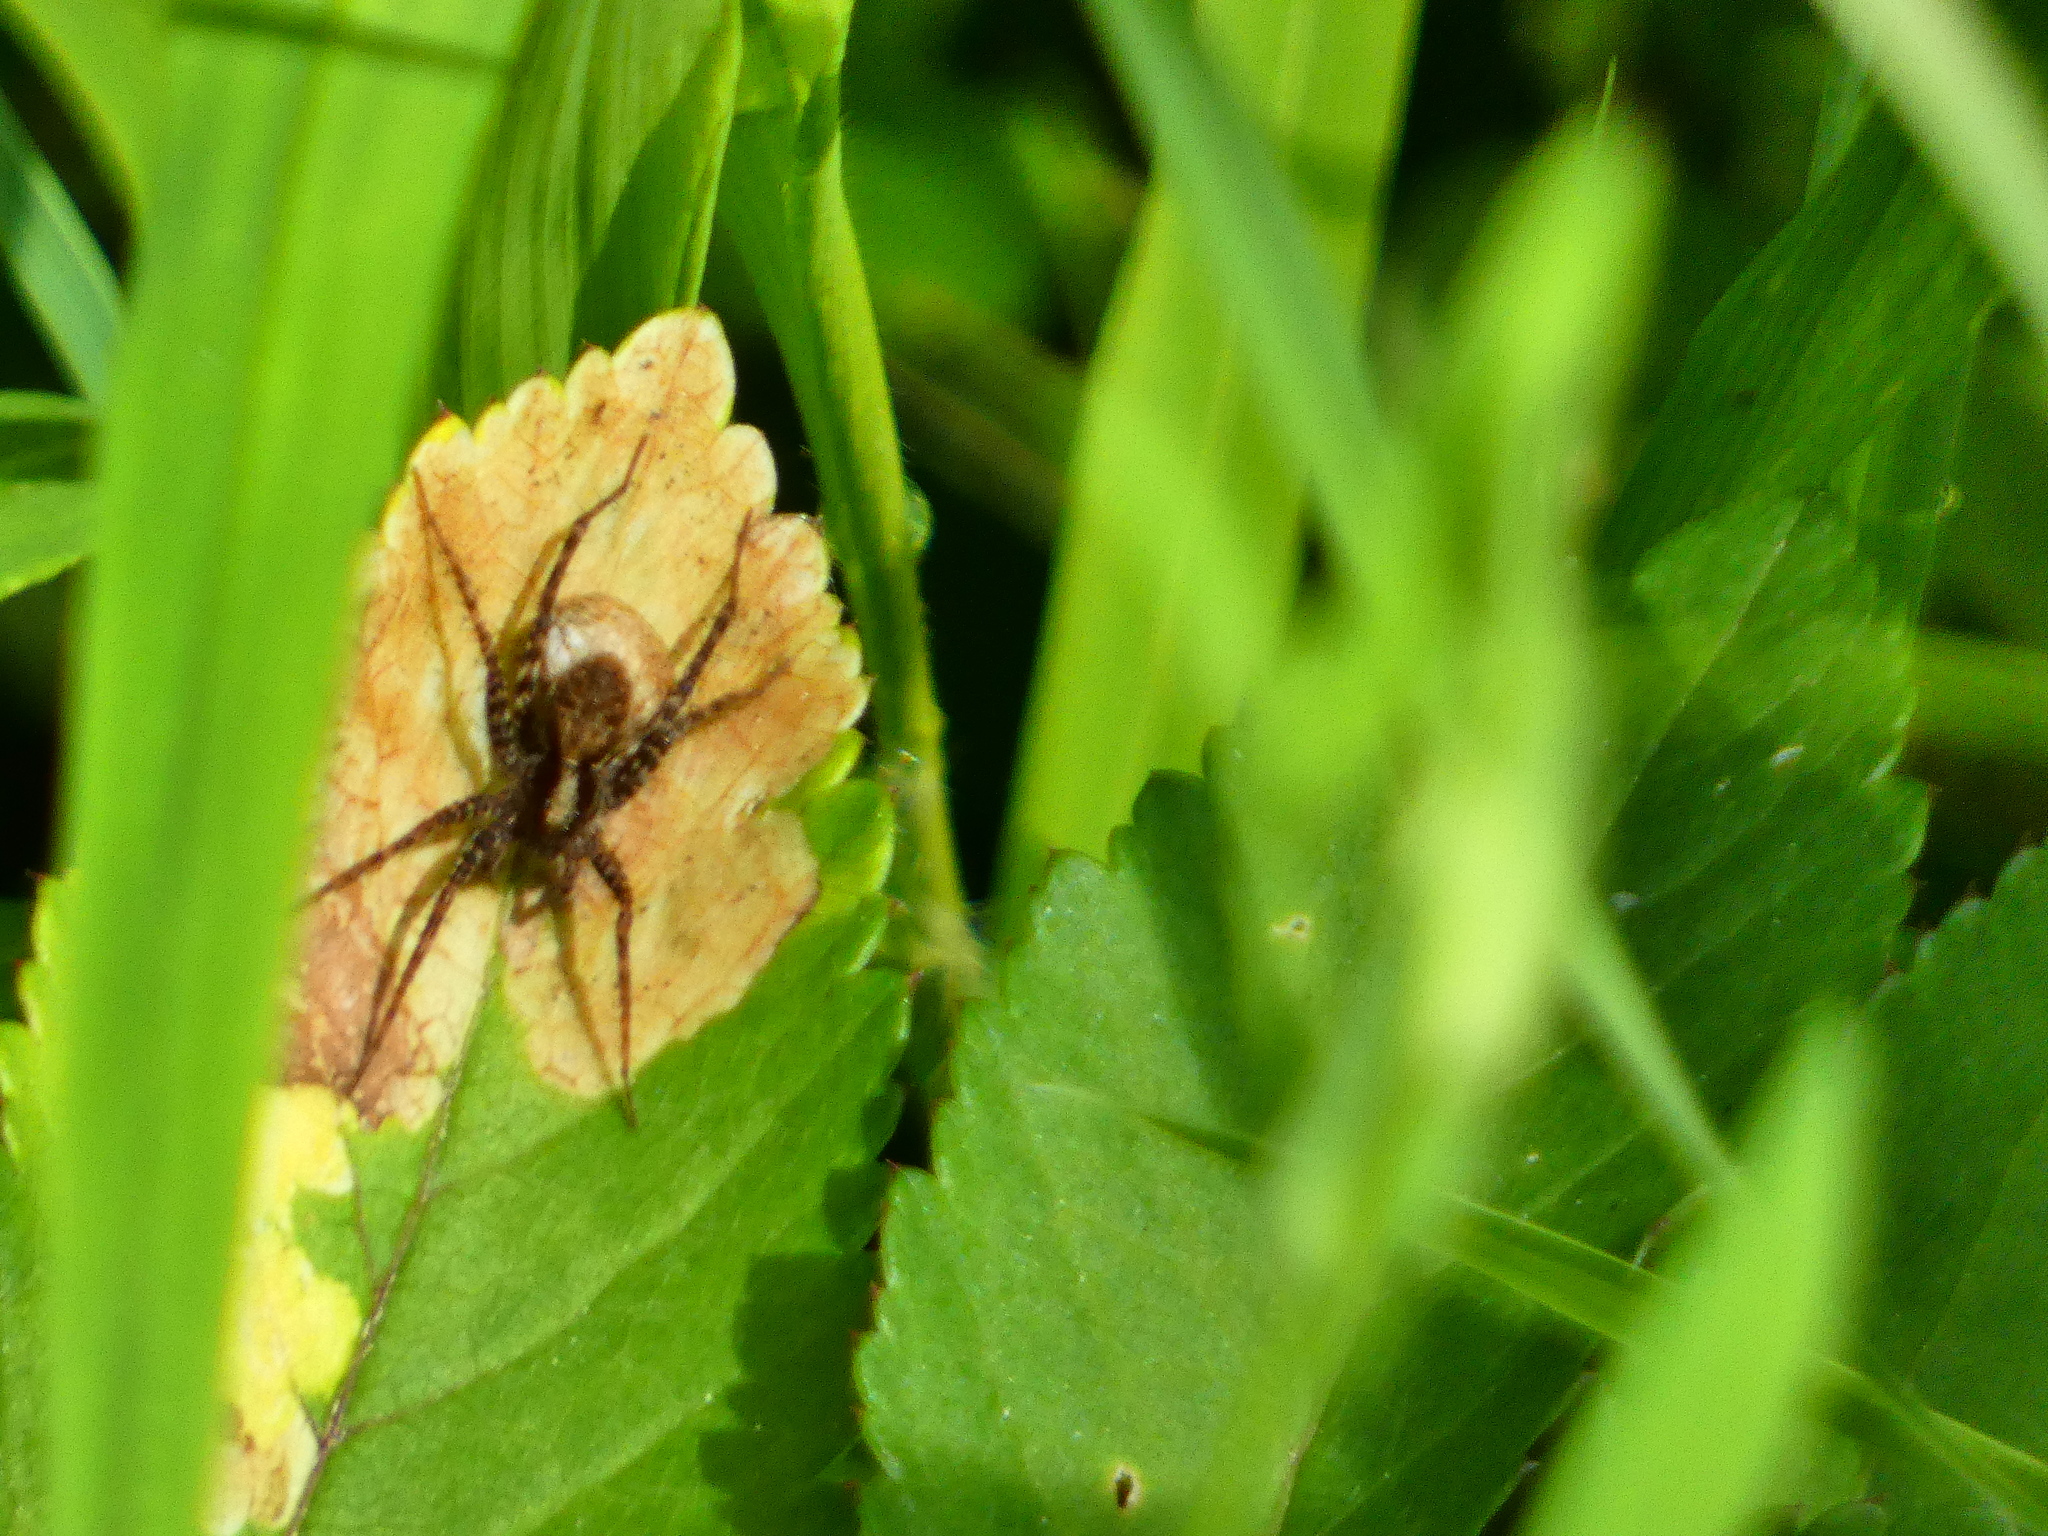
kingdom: Animalia
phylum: Arthropoda
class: Arachnida
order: Araneae
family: Lycosidae
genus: Pardosa
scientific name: Pardosa
